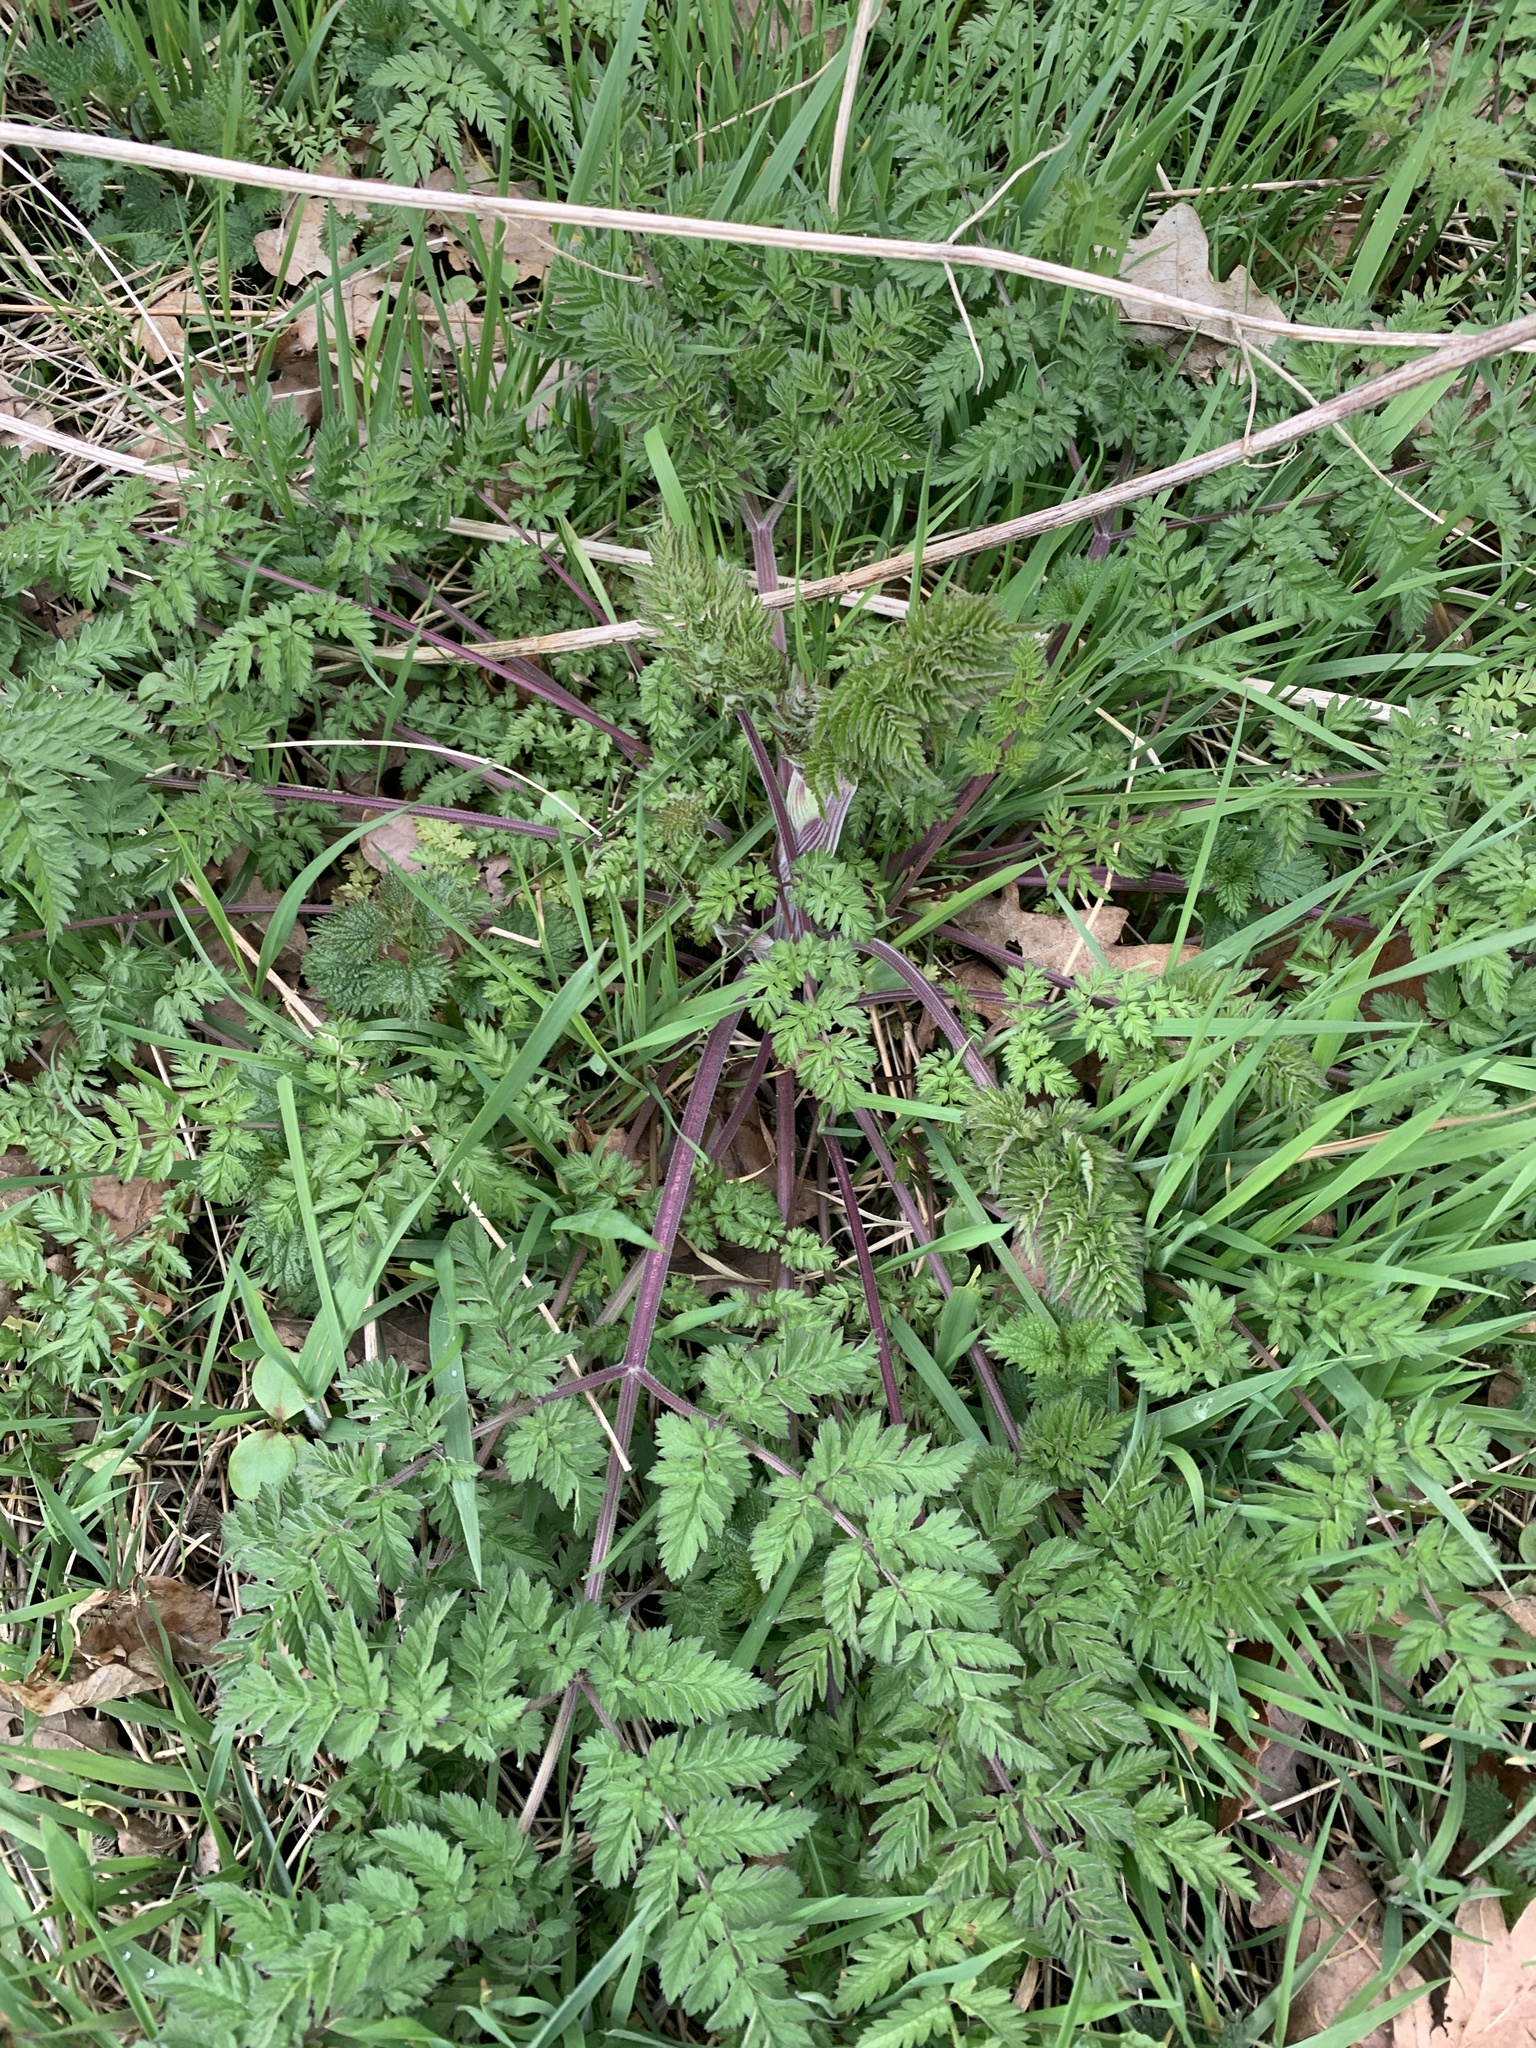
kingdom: Plantae
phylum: Tracheophyta
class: Magnoliopsida
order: Apiales
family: Apiaceae
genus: Anthriscus
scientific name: Anthriscus sylvestris
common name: Cow parsley
